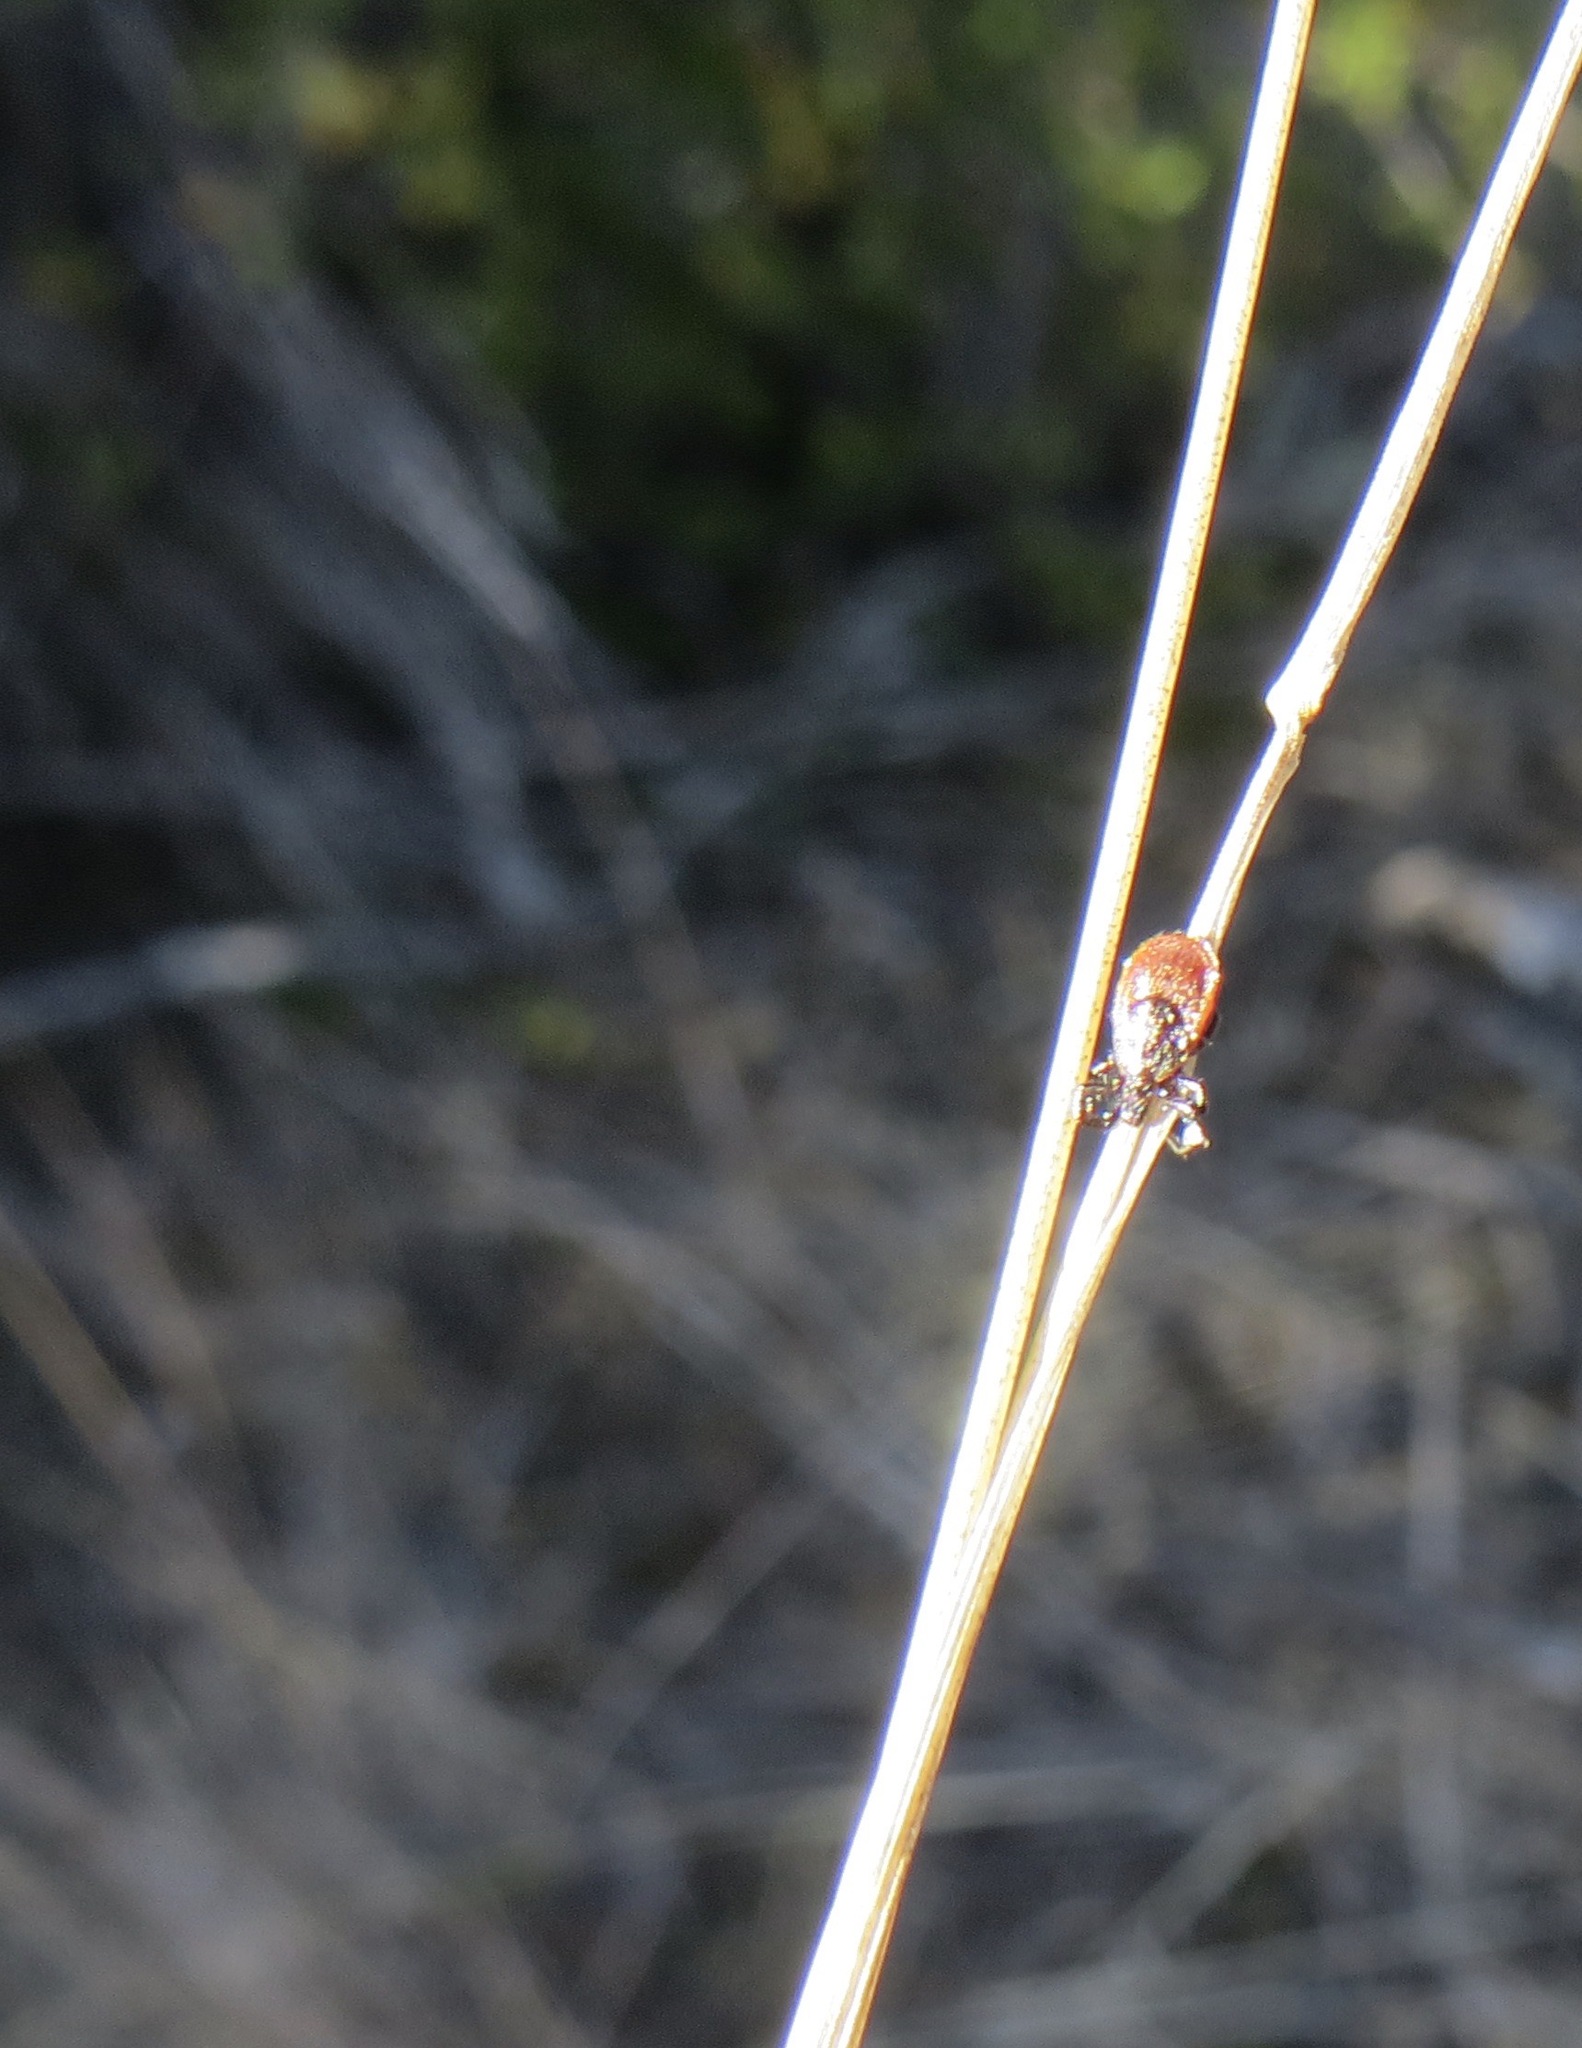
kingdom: Animalia
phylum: Arthropoda
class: Arachnida
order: Ixodida
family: Ixodidae
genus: Ixodes
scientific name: Ixodes pacificus
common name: California black-legged tick
